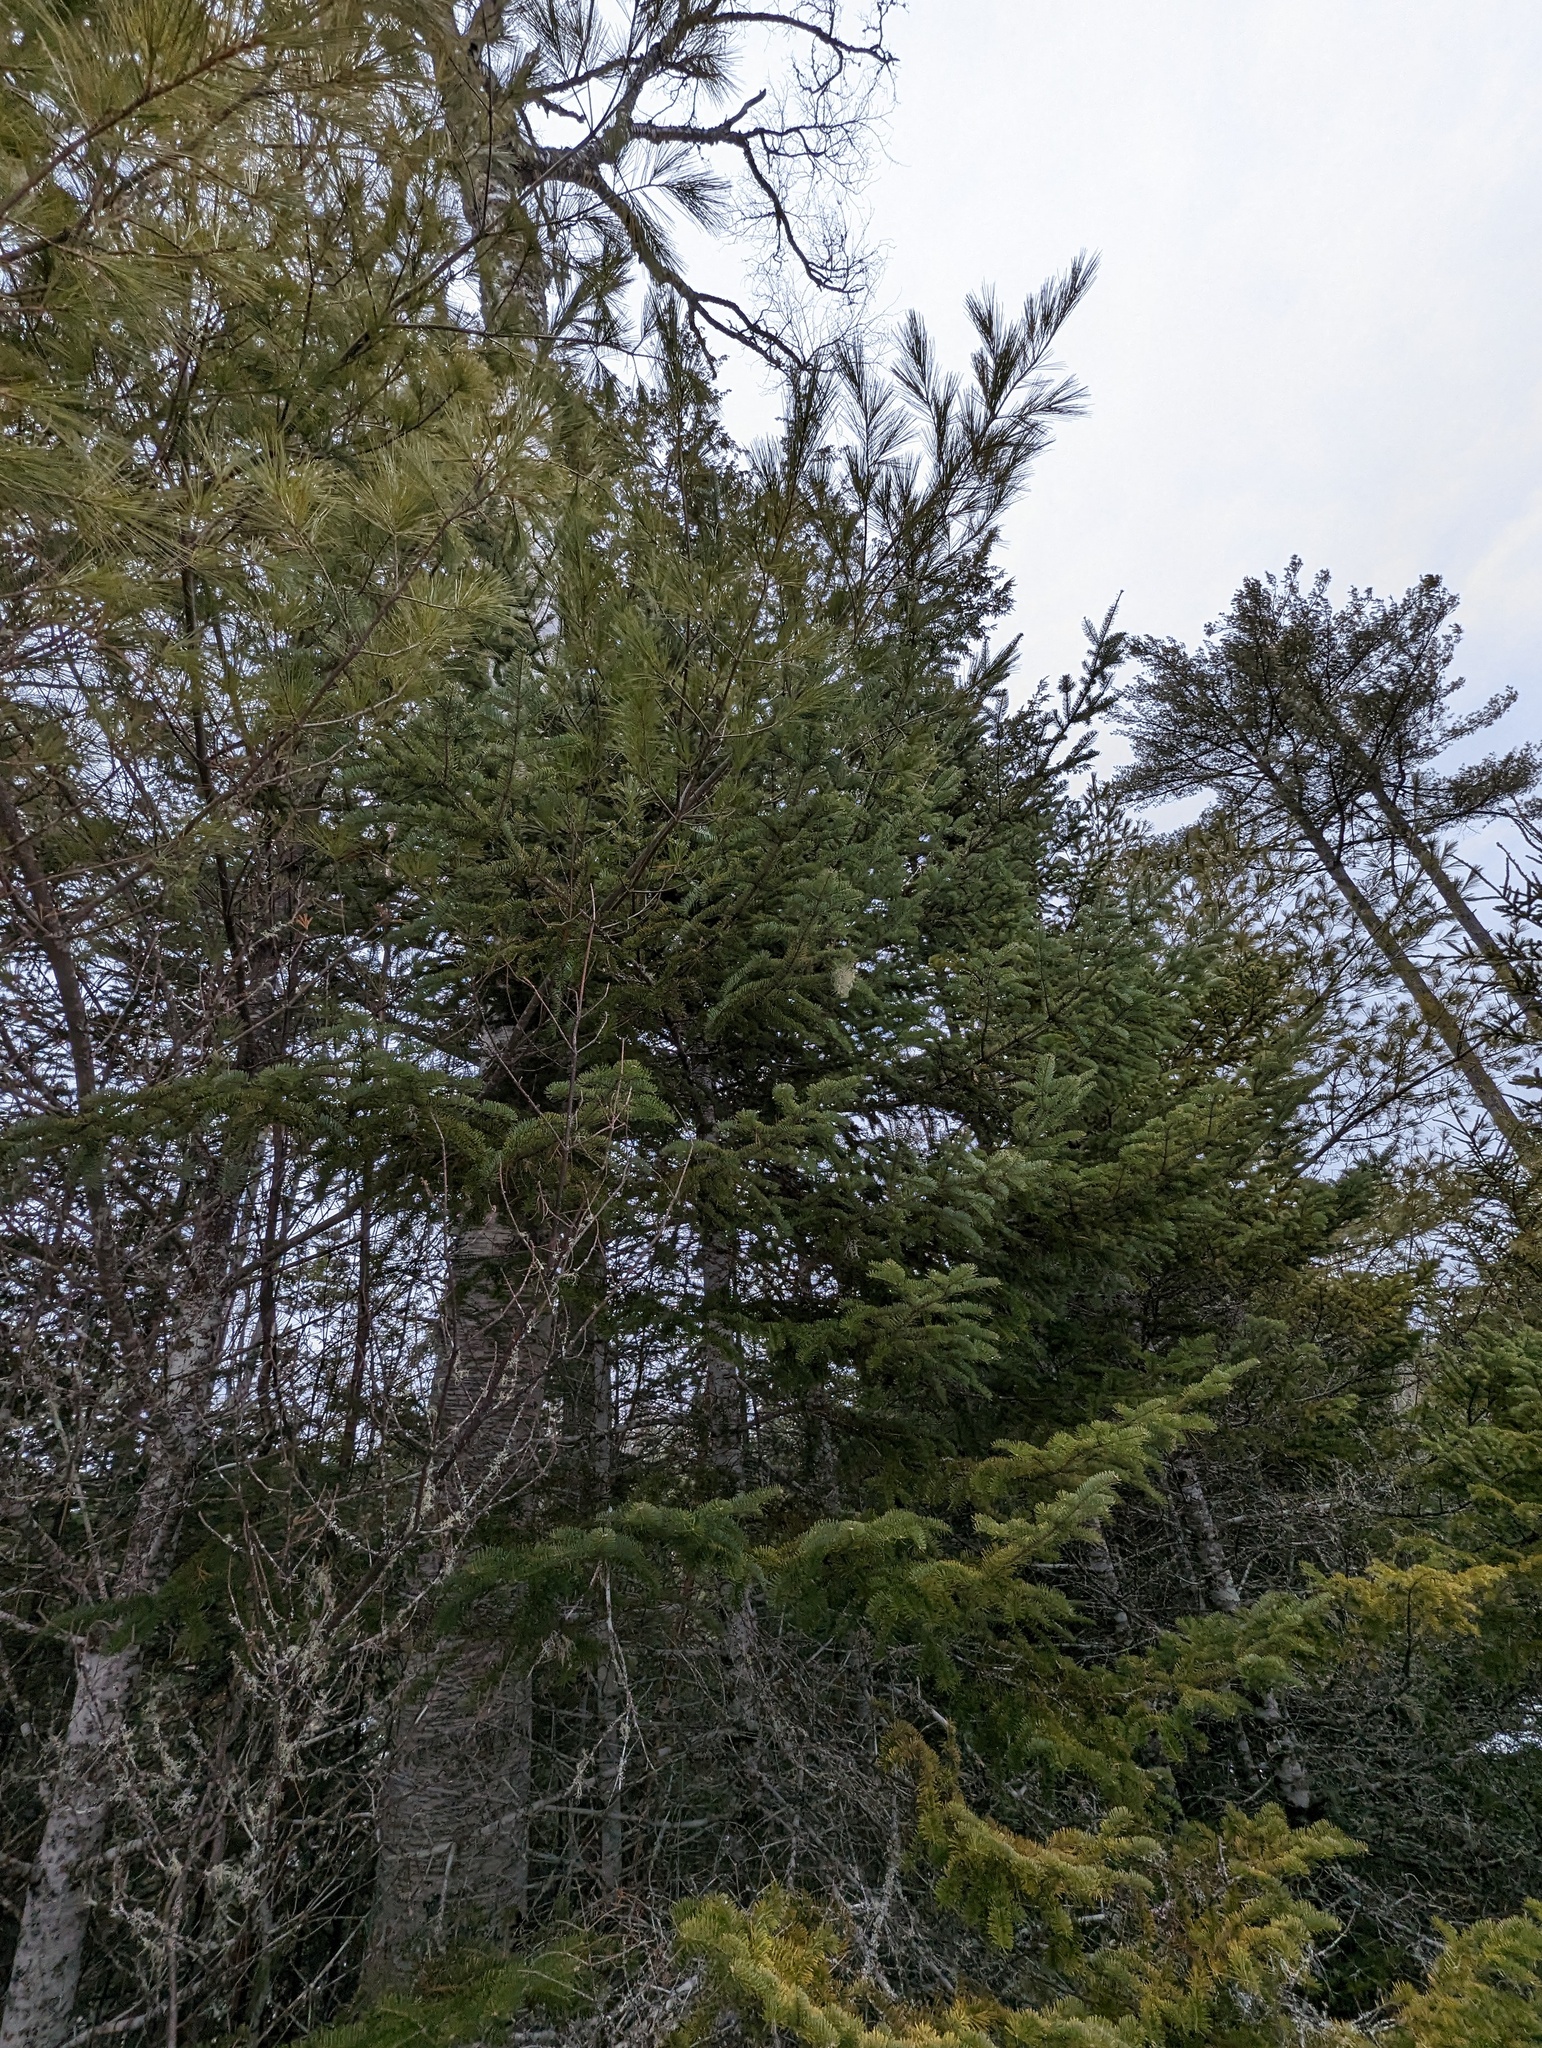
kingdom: Plantae
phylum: Tracheophyta
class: Pinopsida
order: Pinales
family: Pinaceae
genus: Pinus
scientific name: Pinus strobus
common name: Weymouth pine
